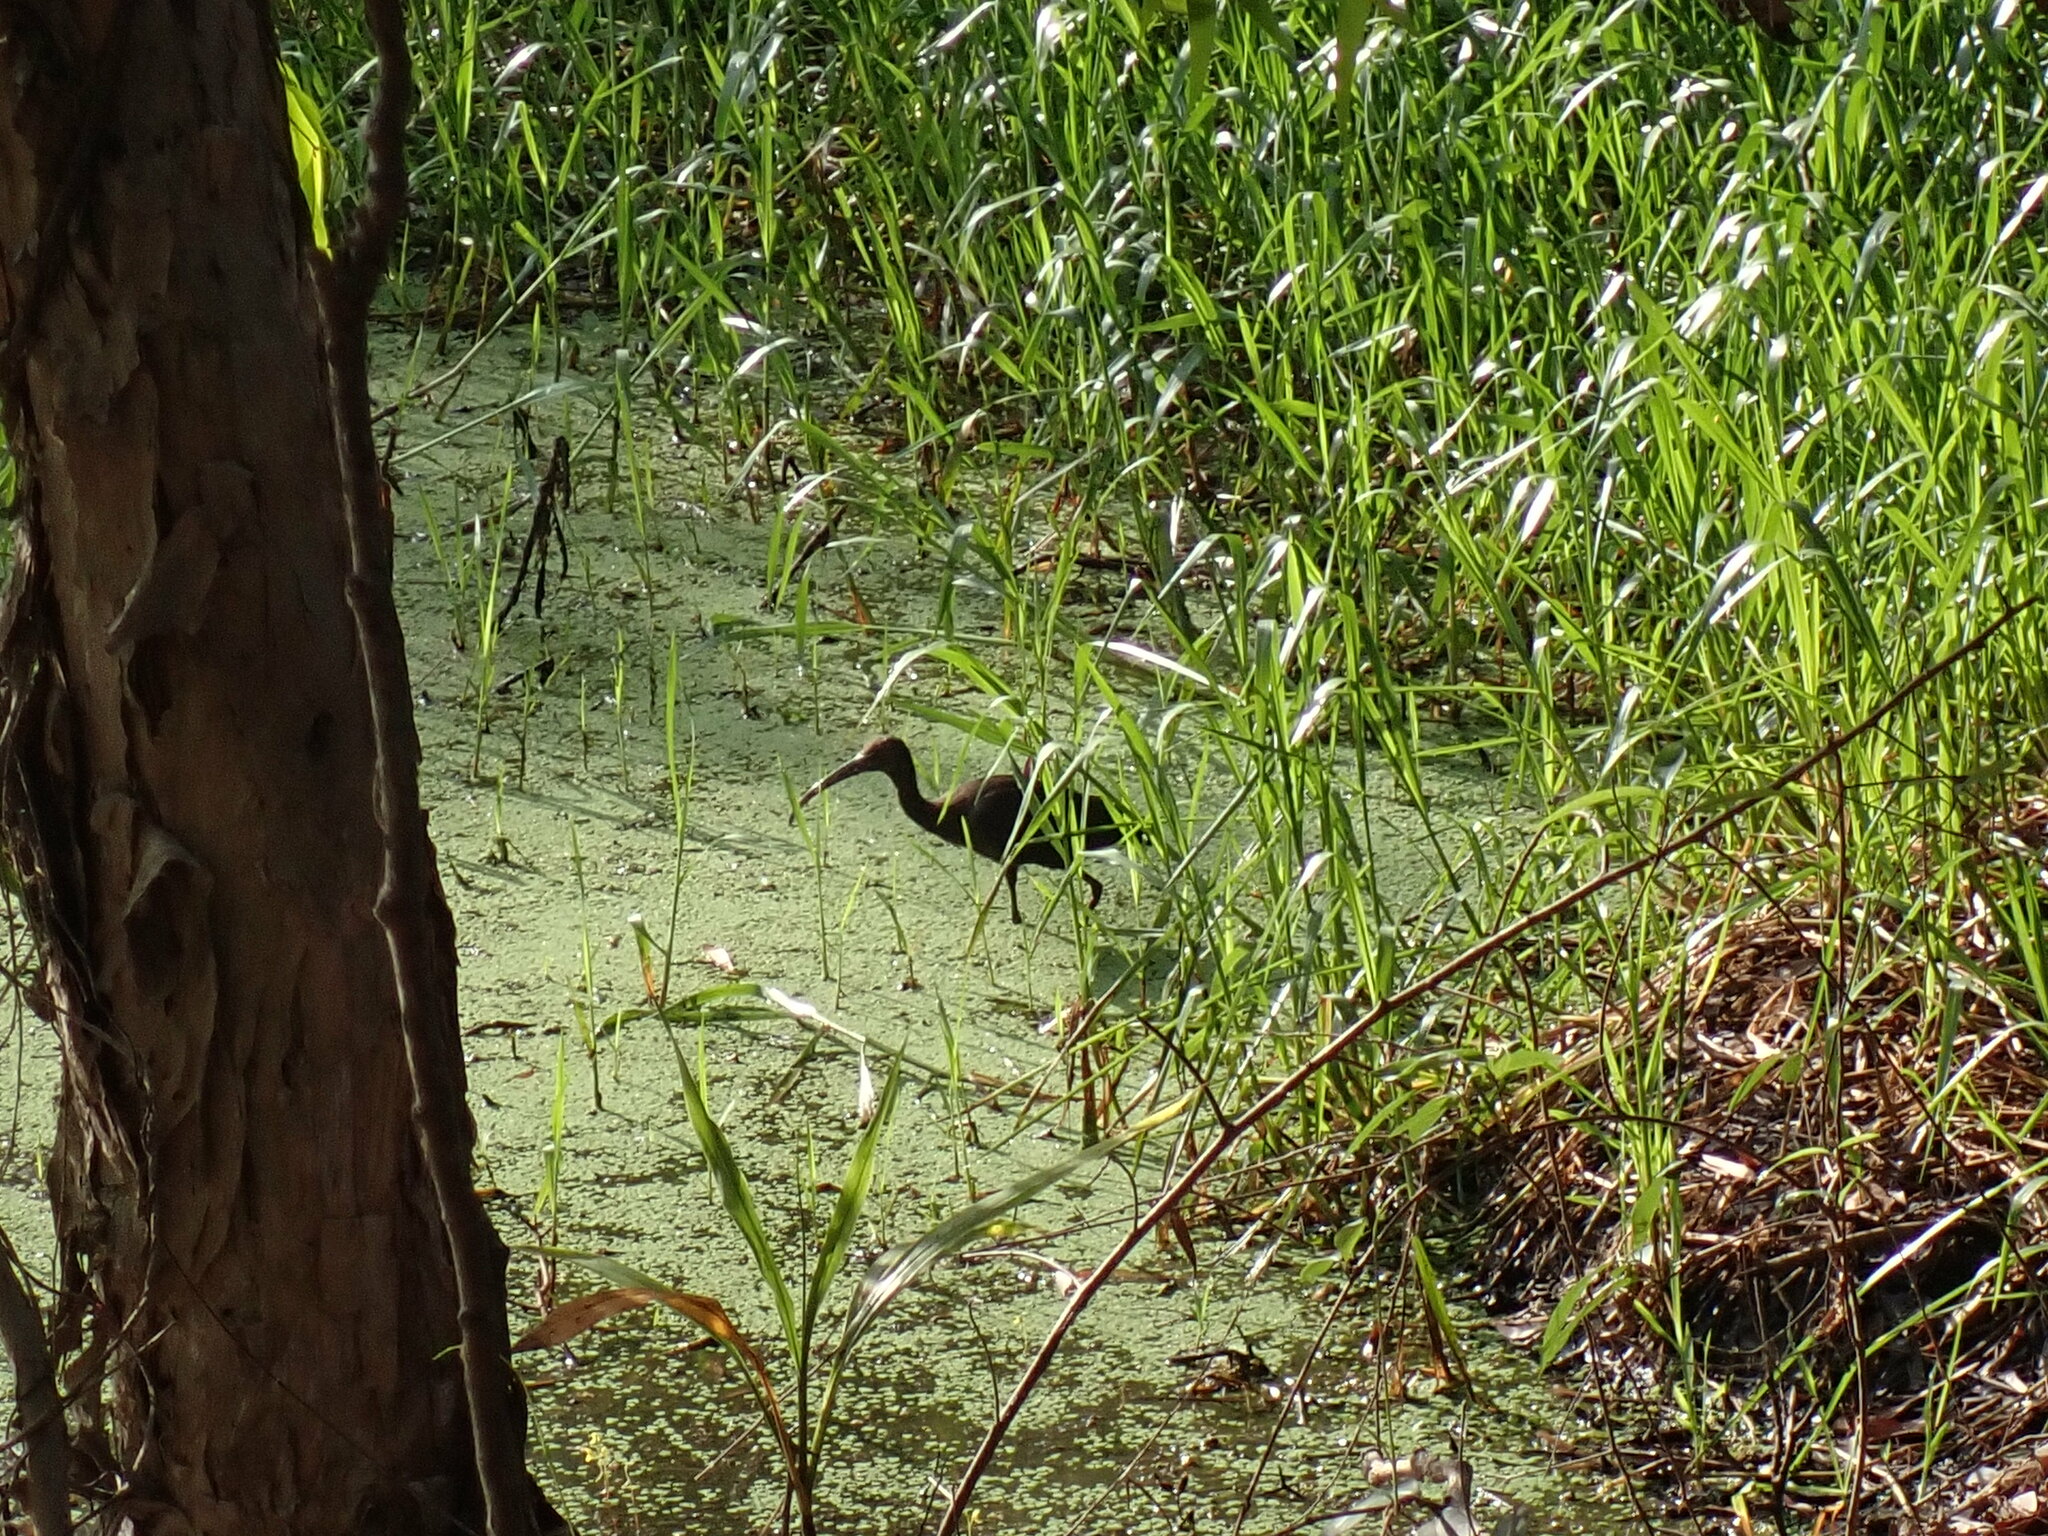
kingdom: Animalia
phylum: Chordata
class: Aves
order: Pelecaniformes
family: Threskiornithidae
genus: Plegadis
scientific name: Plegadis falcinellus
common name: Glossy ibis
